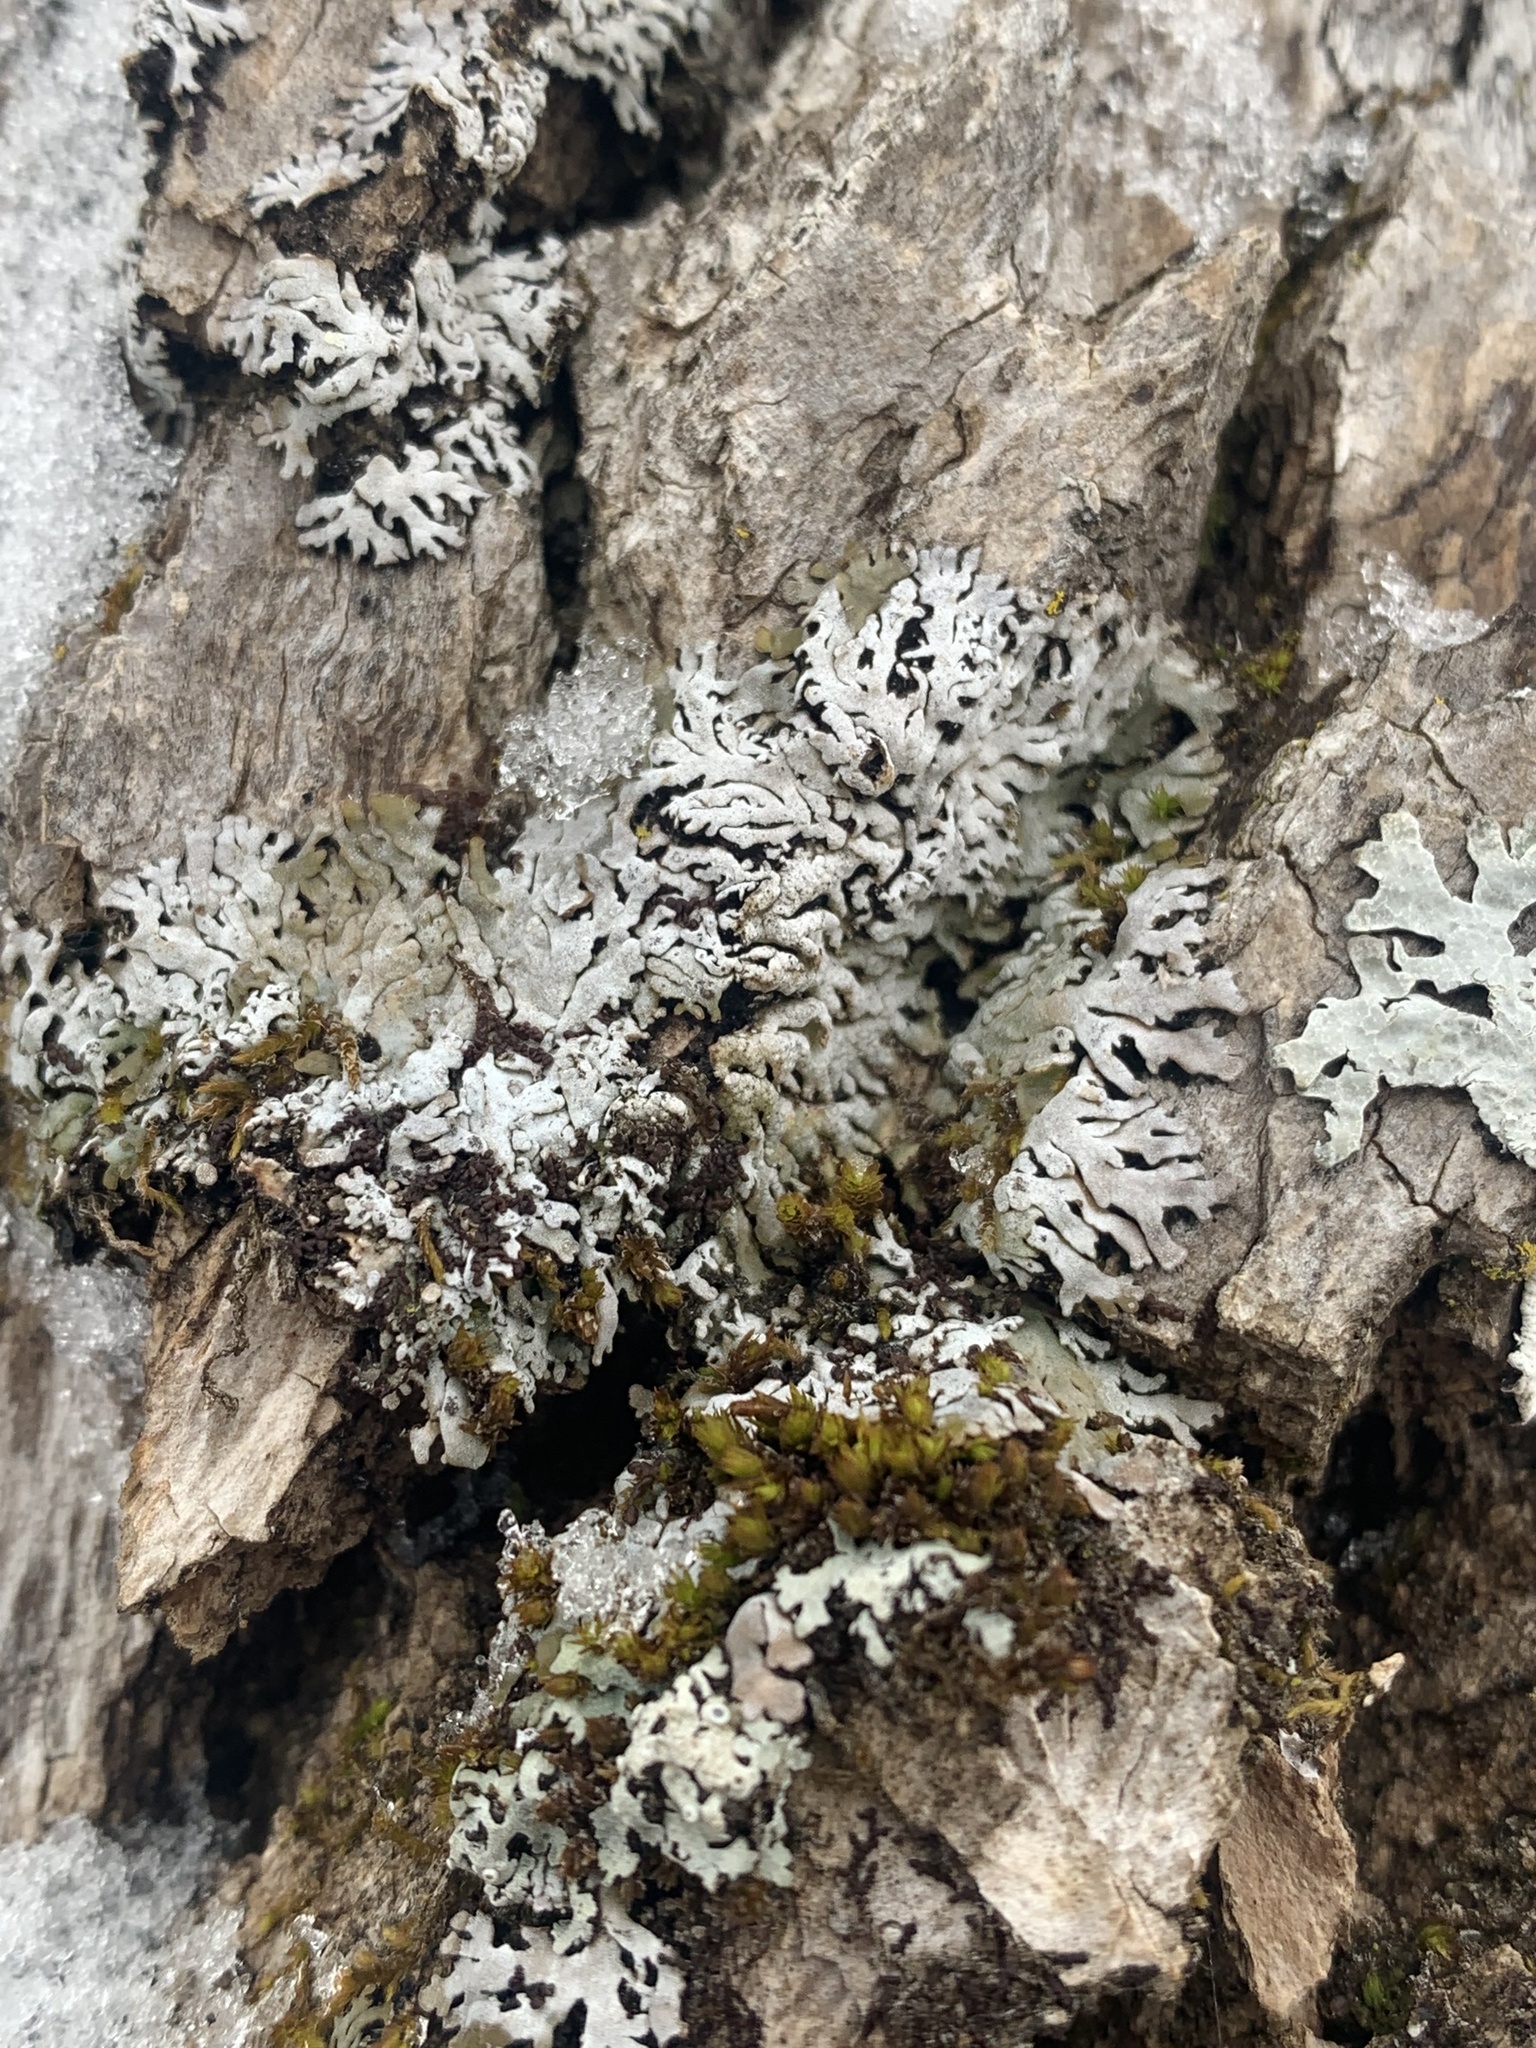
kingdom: Fungi
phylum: Ascomycota
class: Lecanoromycetes
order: Caliciales
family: Physciaceae
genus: Physconia
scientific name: Physconia subpallida
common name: Pale-belly frost lichen
